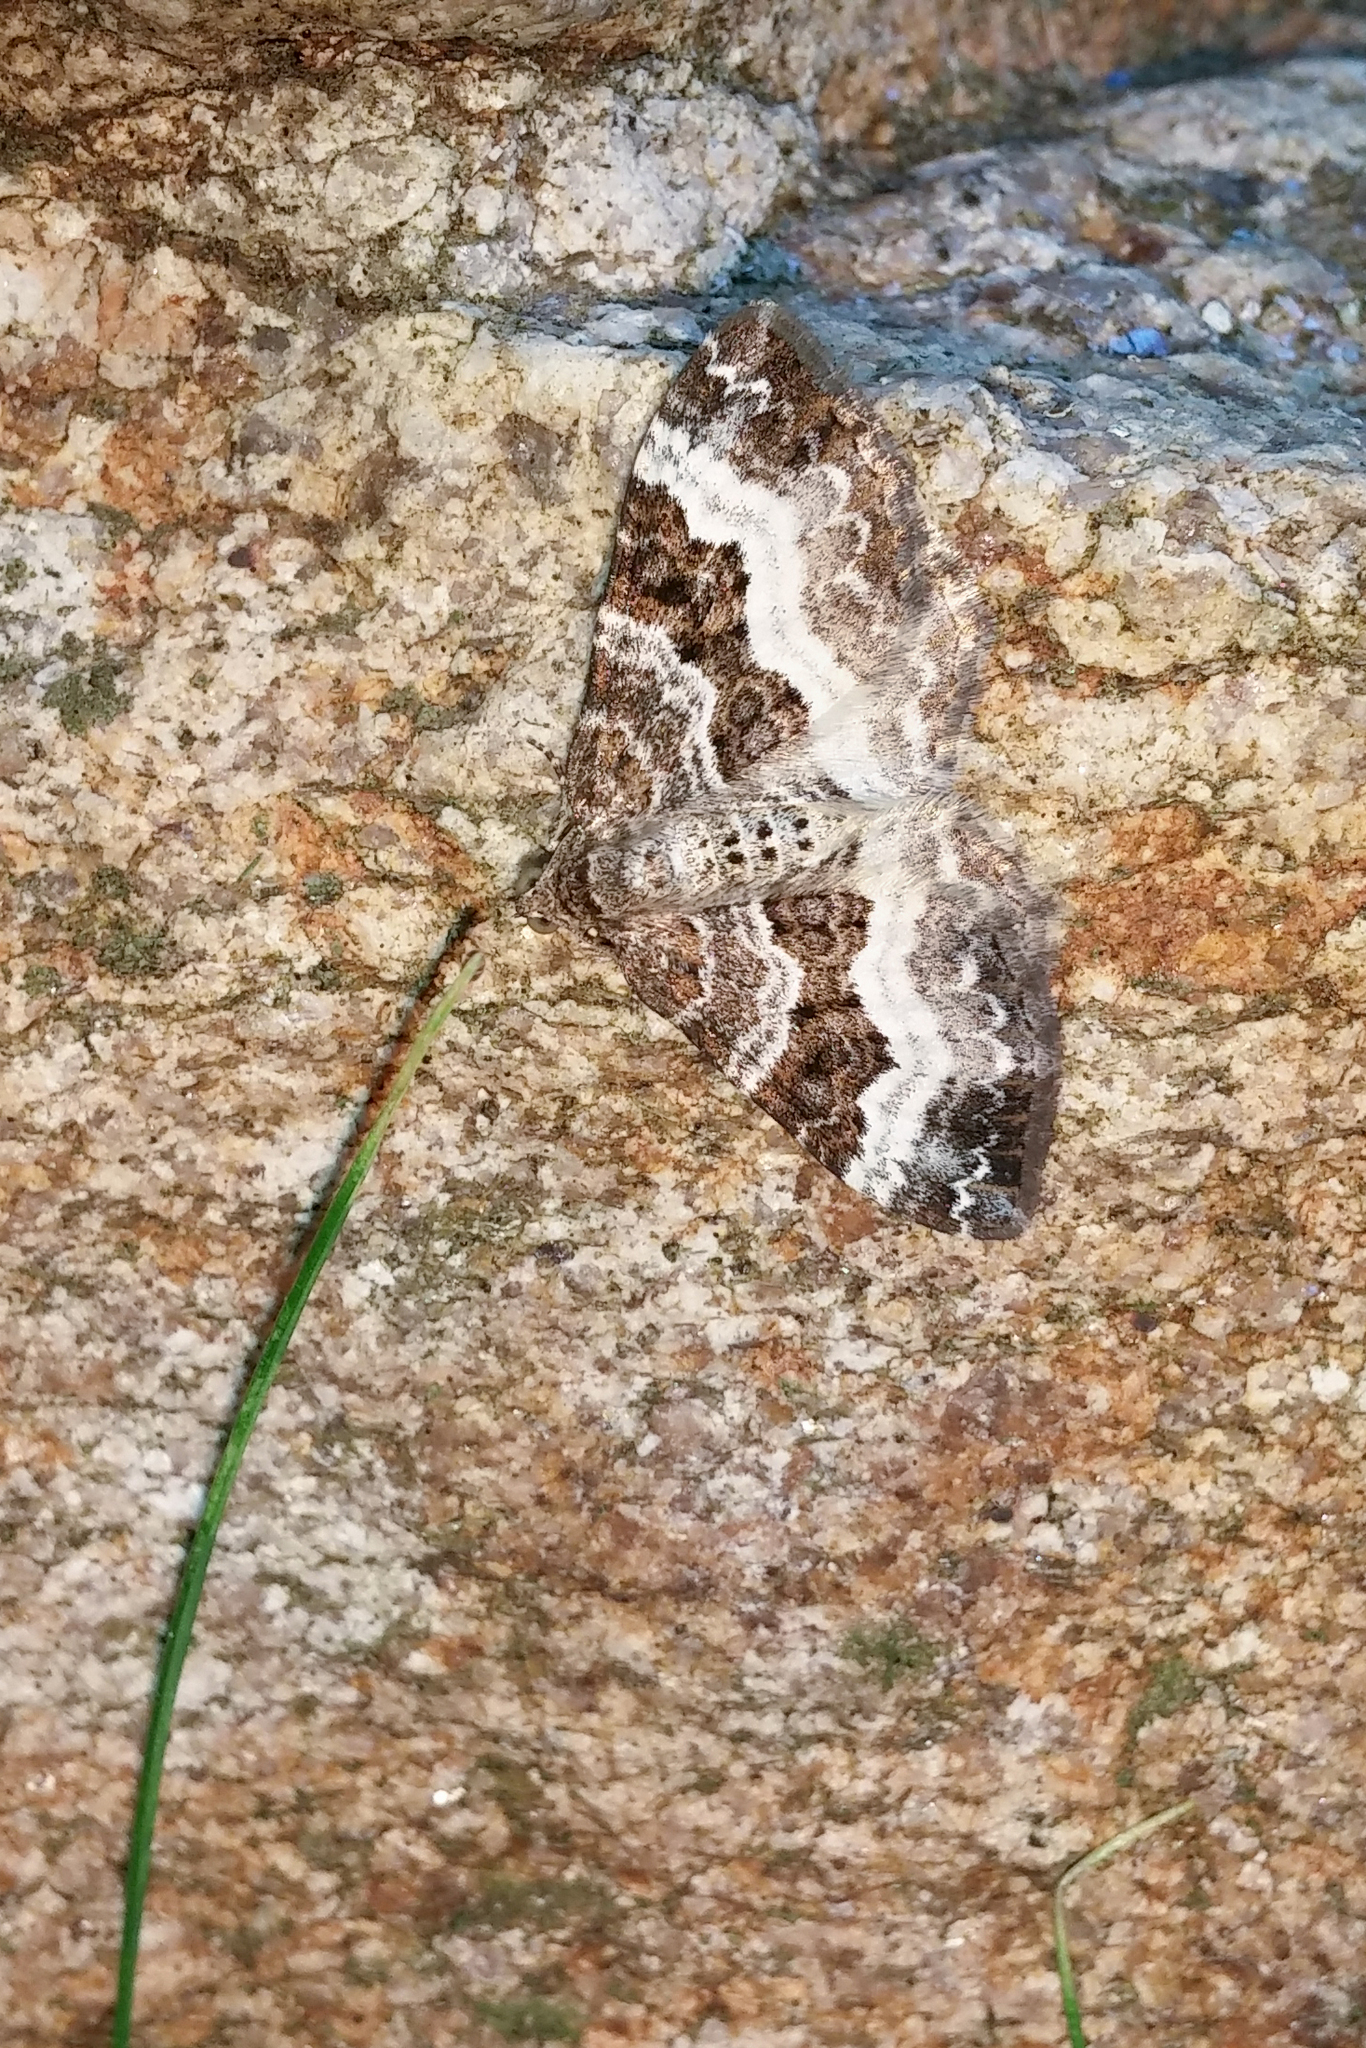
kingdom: Animalia
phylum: Arthropoda
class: Insecta
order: Lepidoptera
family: Geometridae
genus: Epirrhoe
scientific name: Epirrhoe alternata
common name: Common carpet
